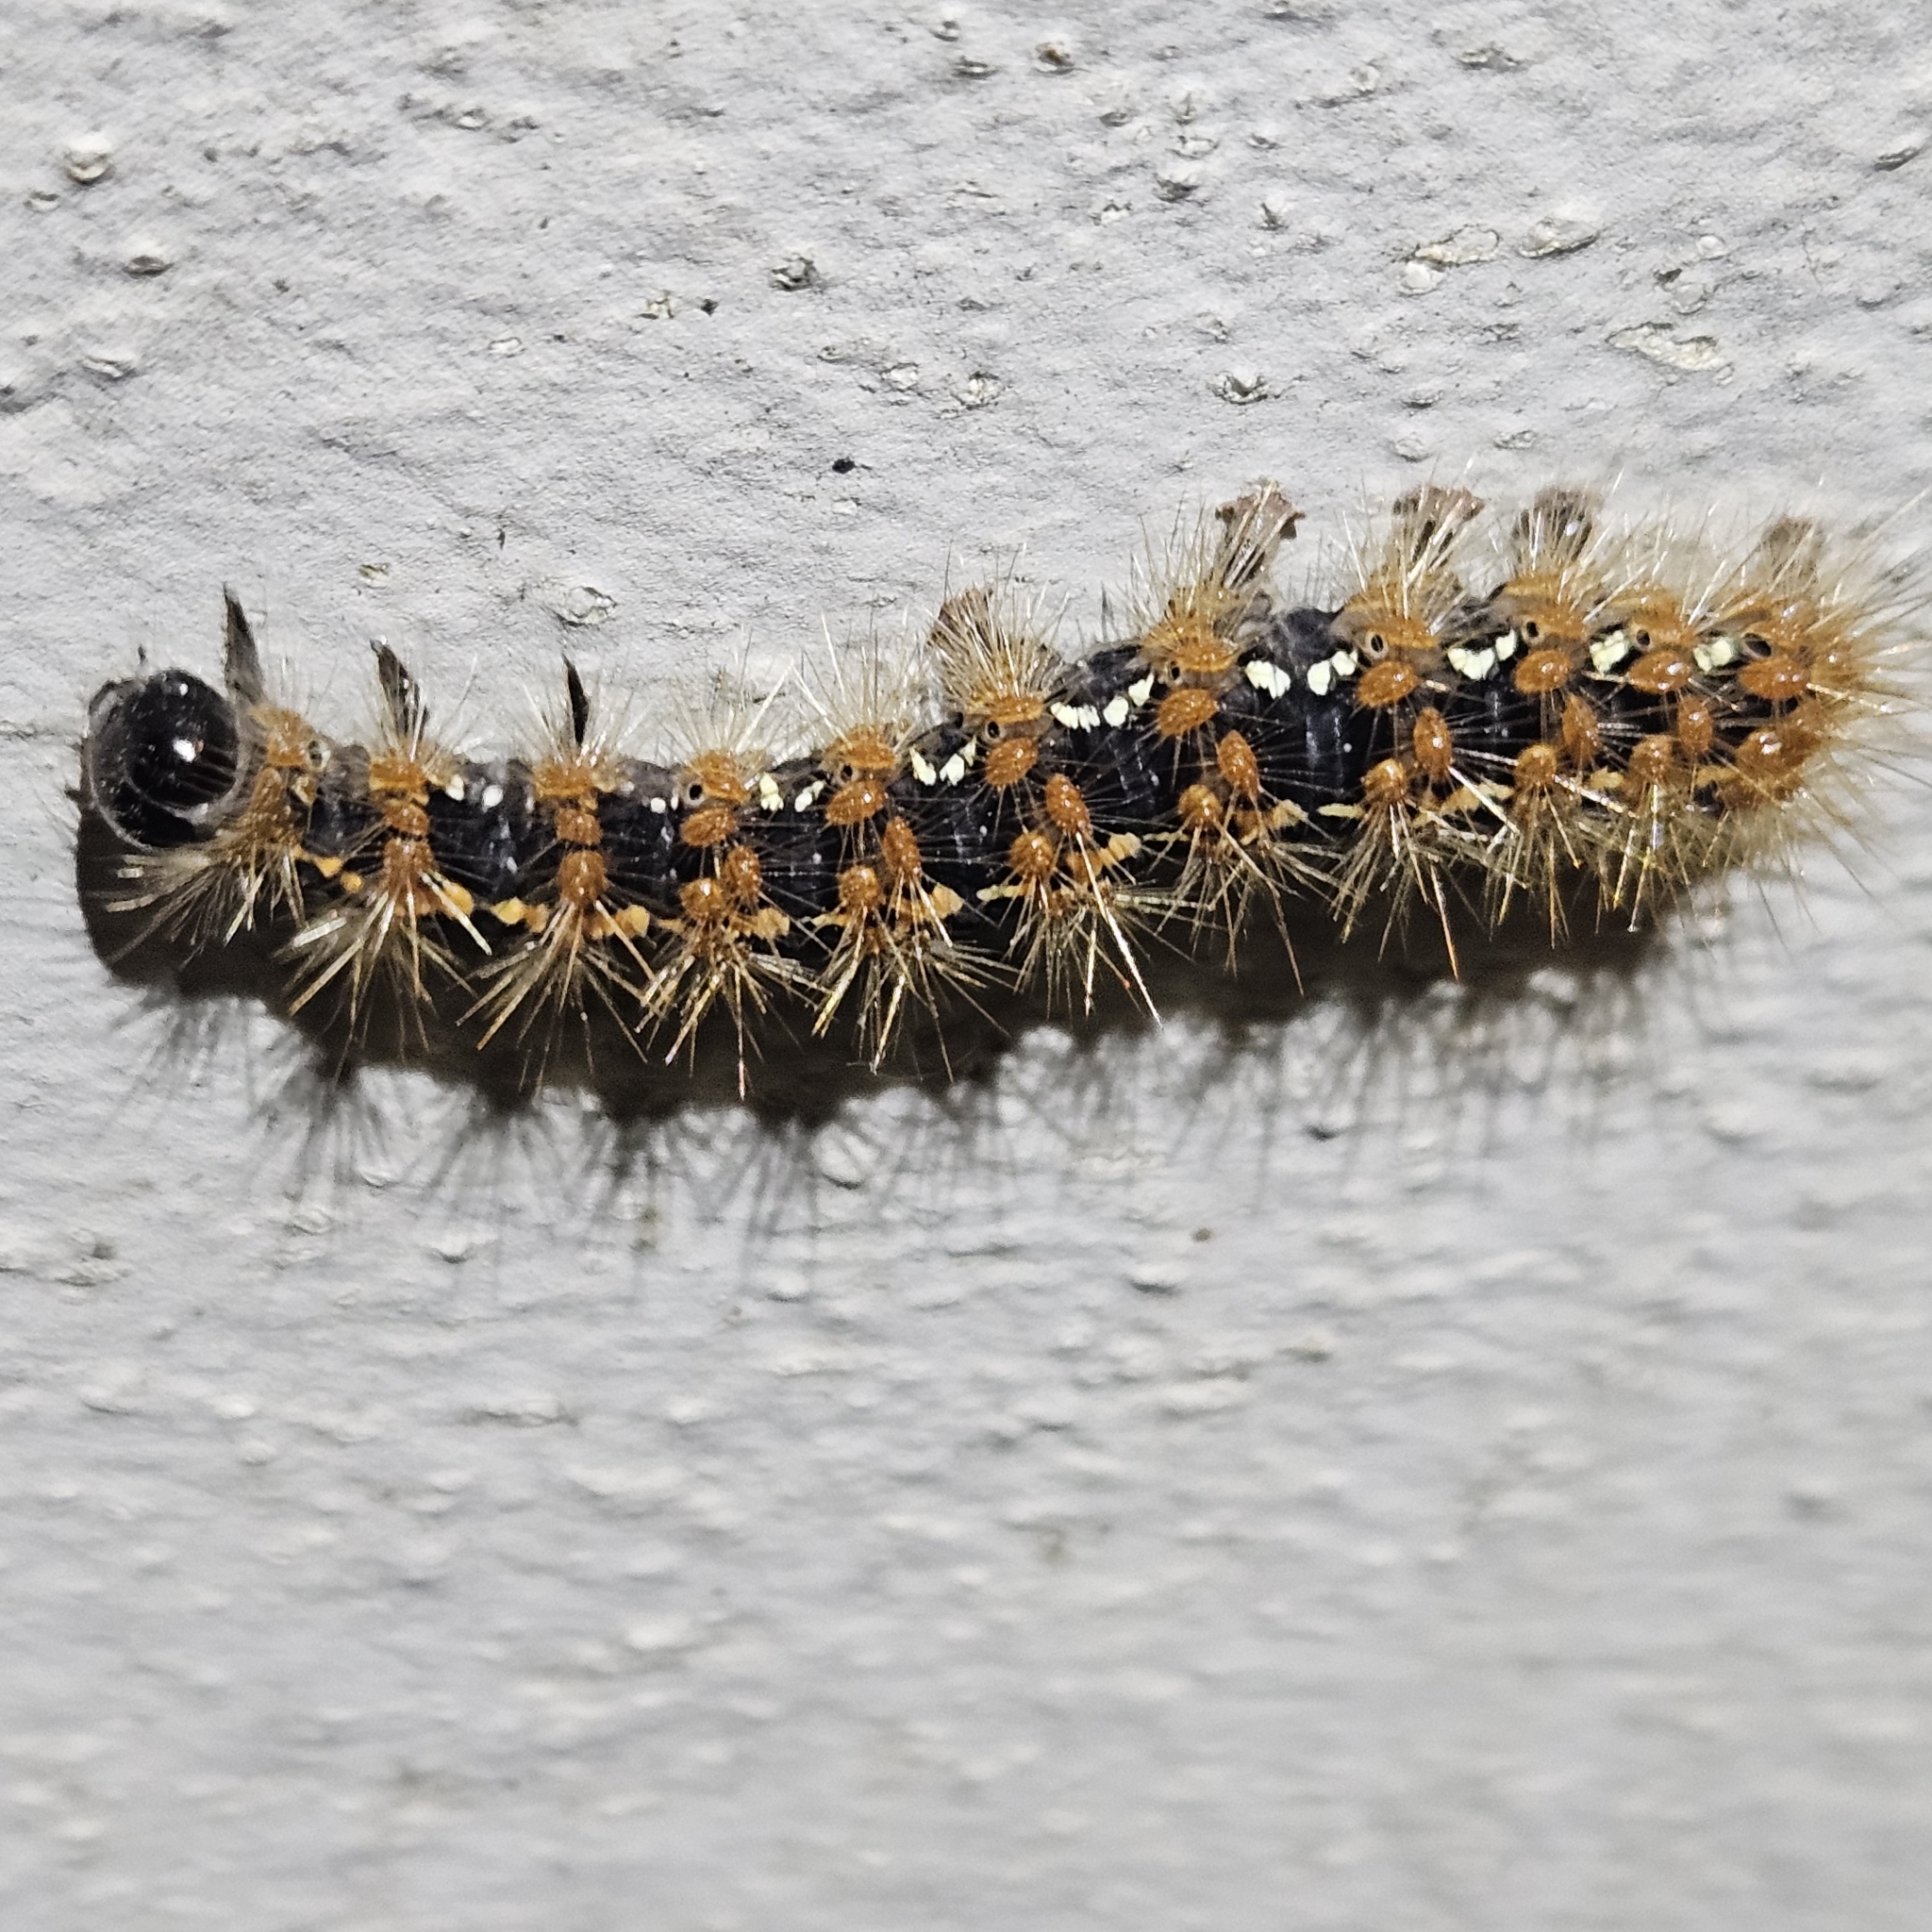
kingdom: Animalia
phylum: Arthropoda
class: Insecta
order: Lepidoptera
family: Erebidae
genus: Euplagia
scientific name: Euplagia quadripunctaria
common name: Jersey tiger
